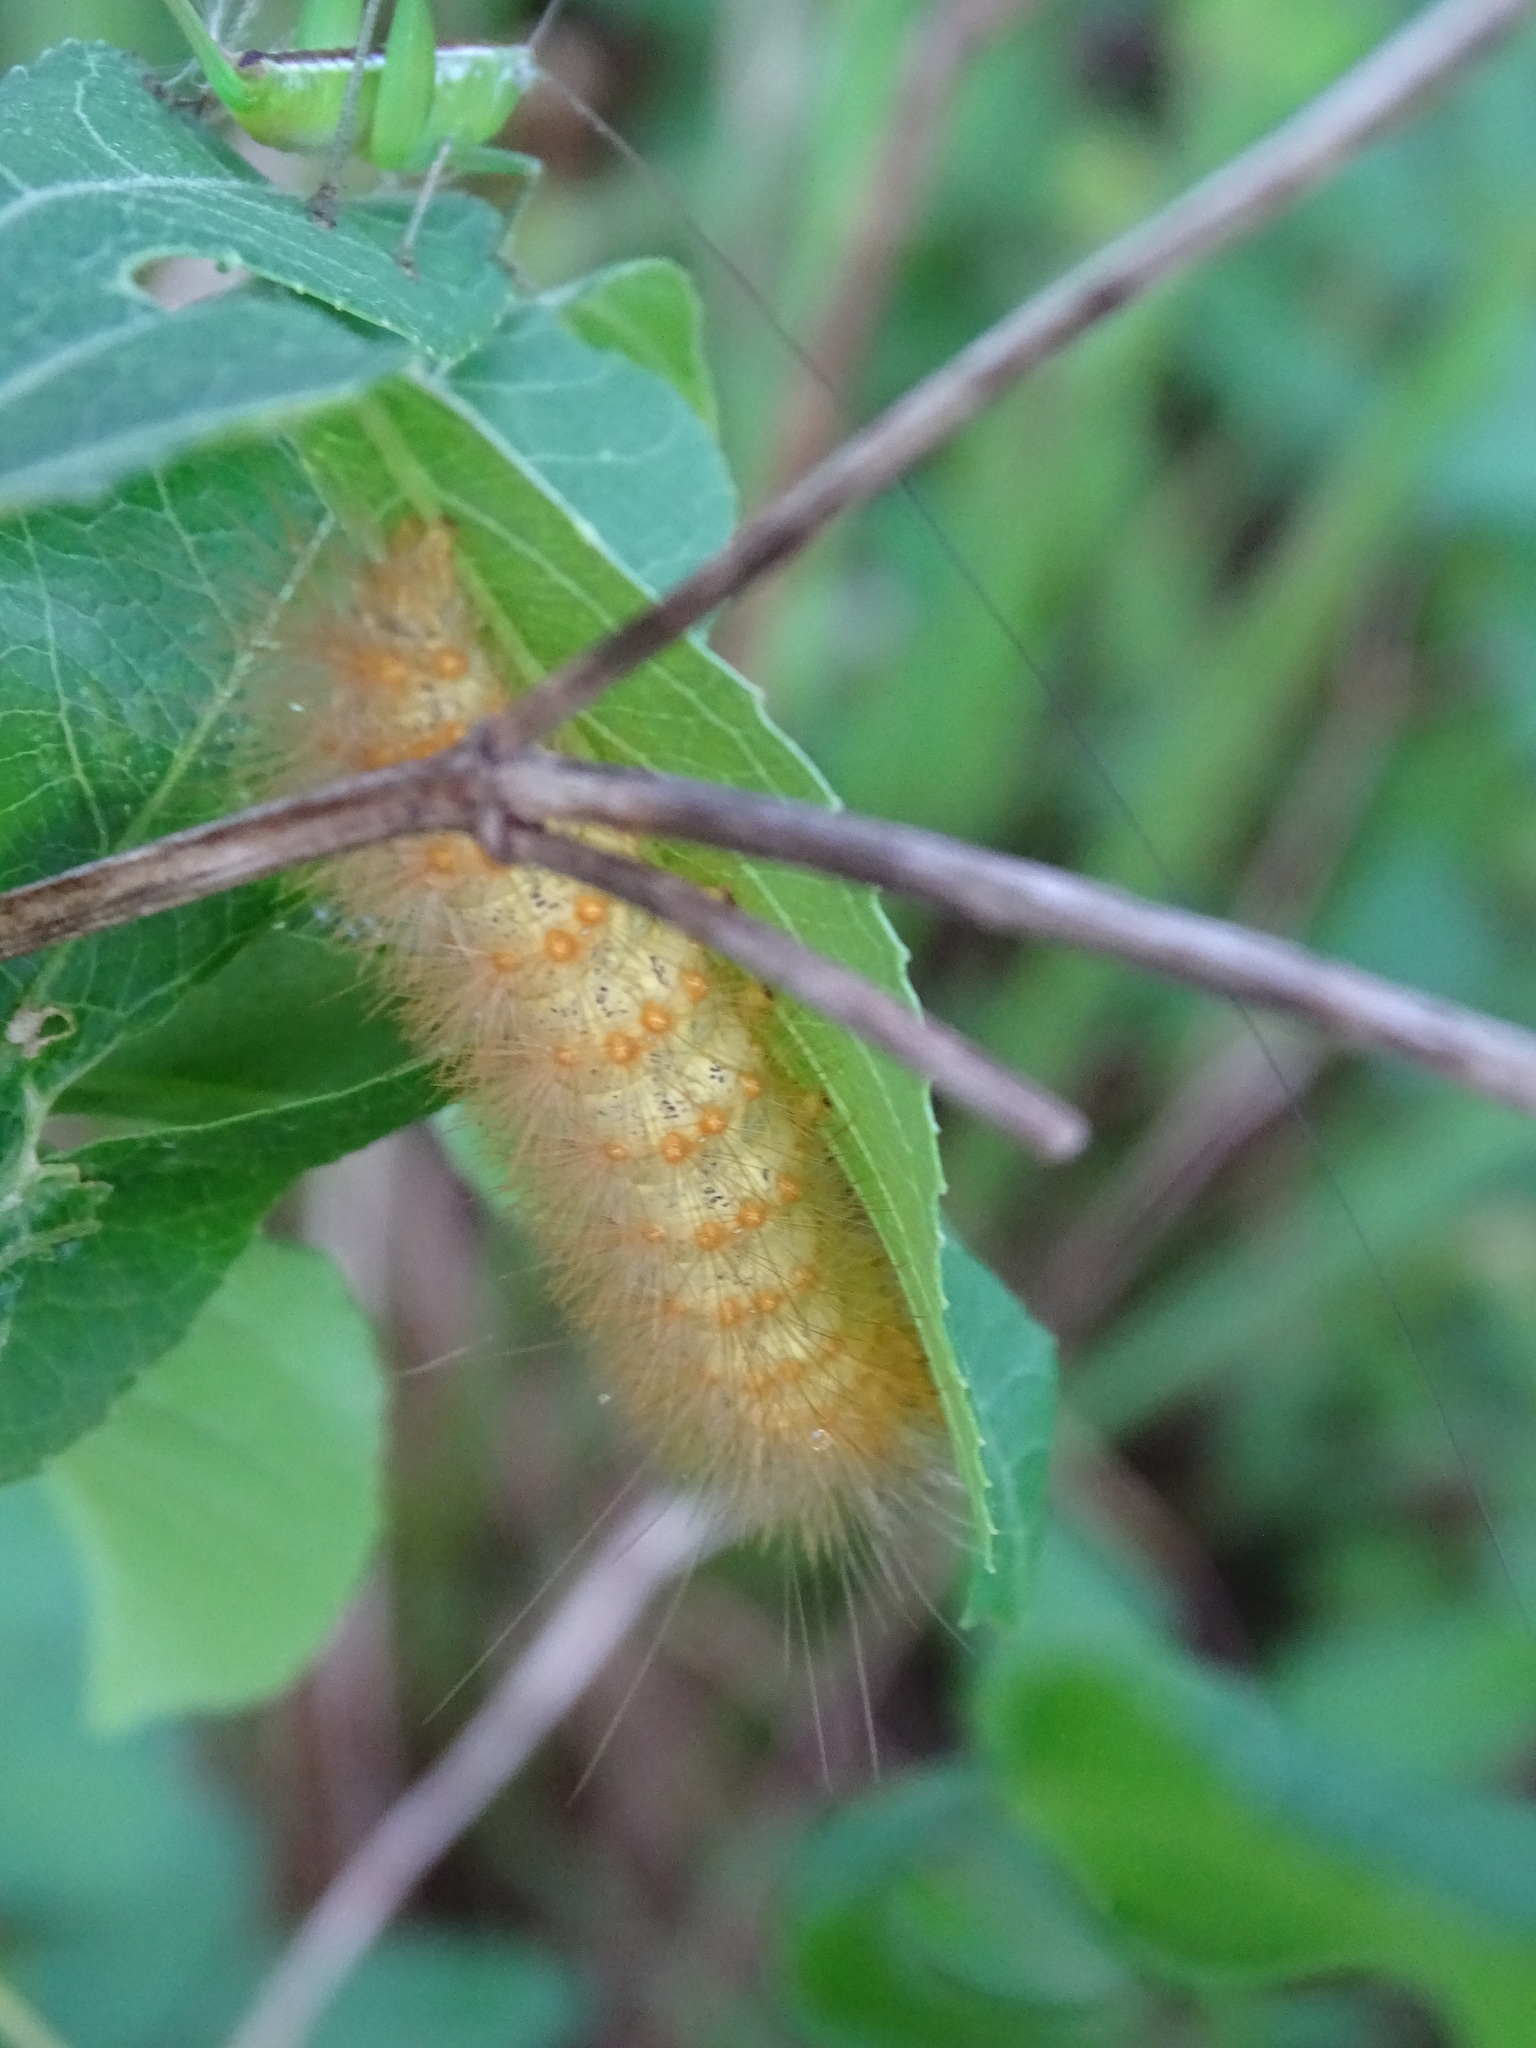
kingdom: Animalia
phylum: Arthropoda
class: Insecta
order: Lepidoptera
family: Erebidae
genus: Estigmene
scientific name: Estigmene acrea
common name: Salt marsh moth
